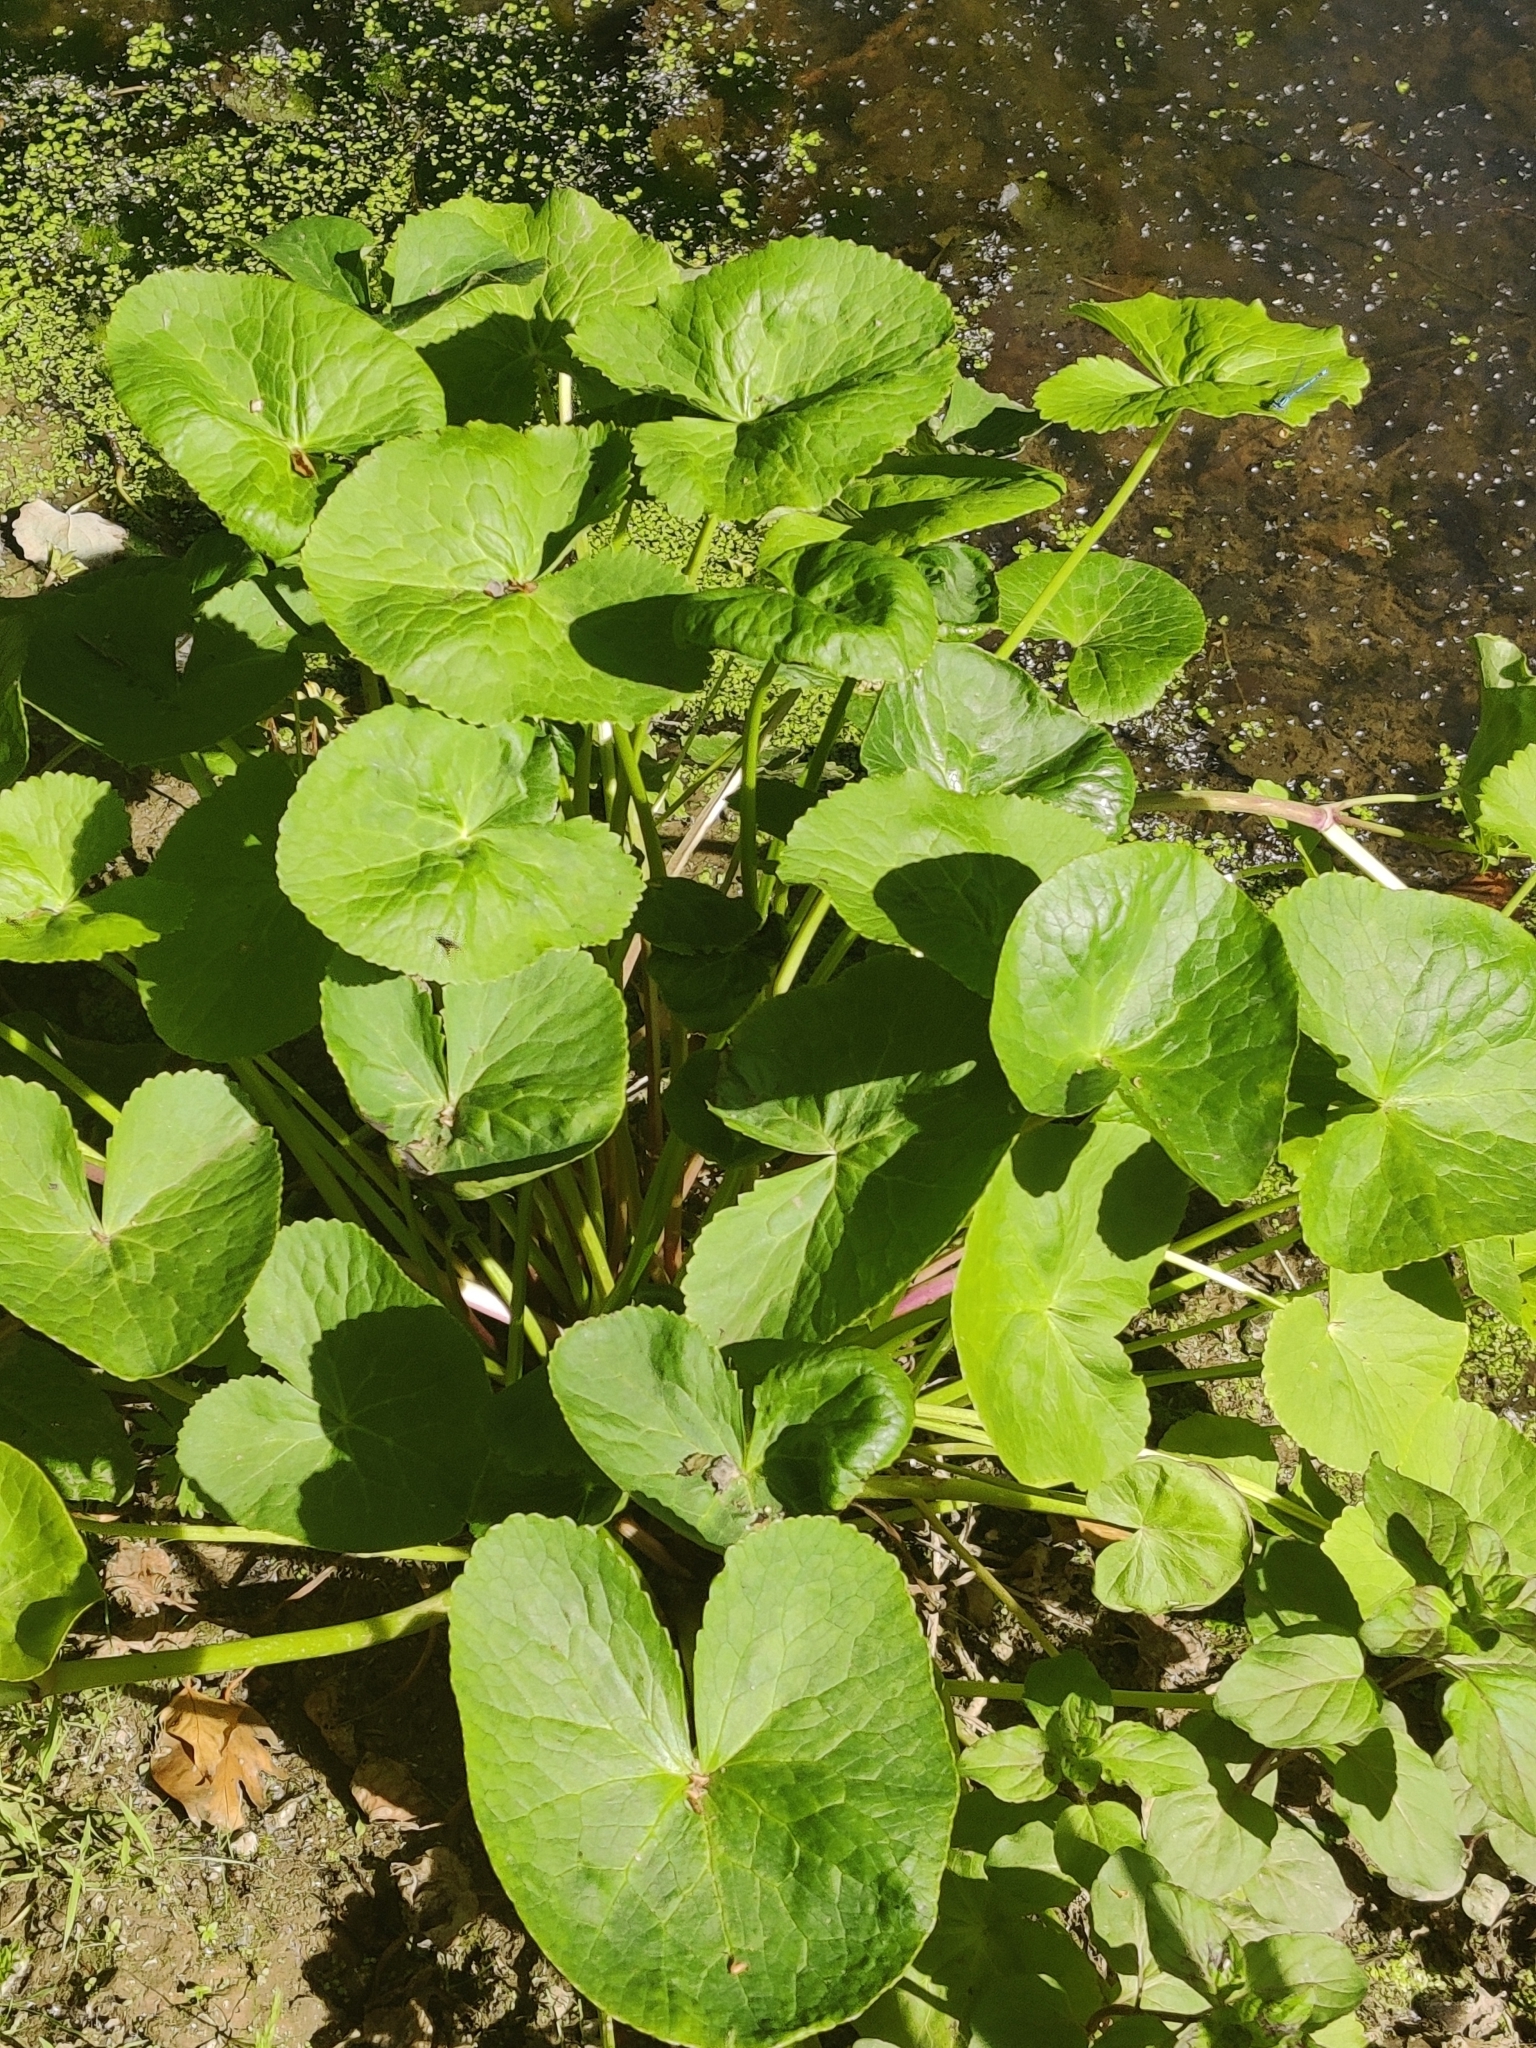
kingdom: Plantae
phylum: Tracheophyta
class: Magnoliopsida
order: Ranunculales
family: Ranunculaceae
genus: Caltha
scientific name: Caltha palustris
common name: Marsh marigold
